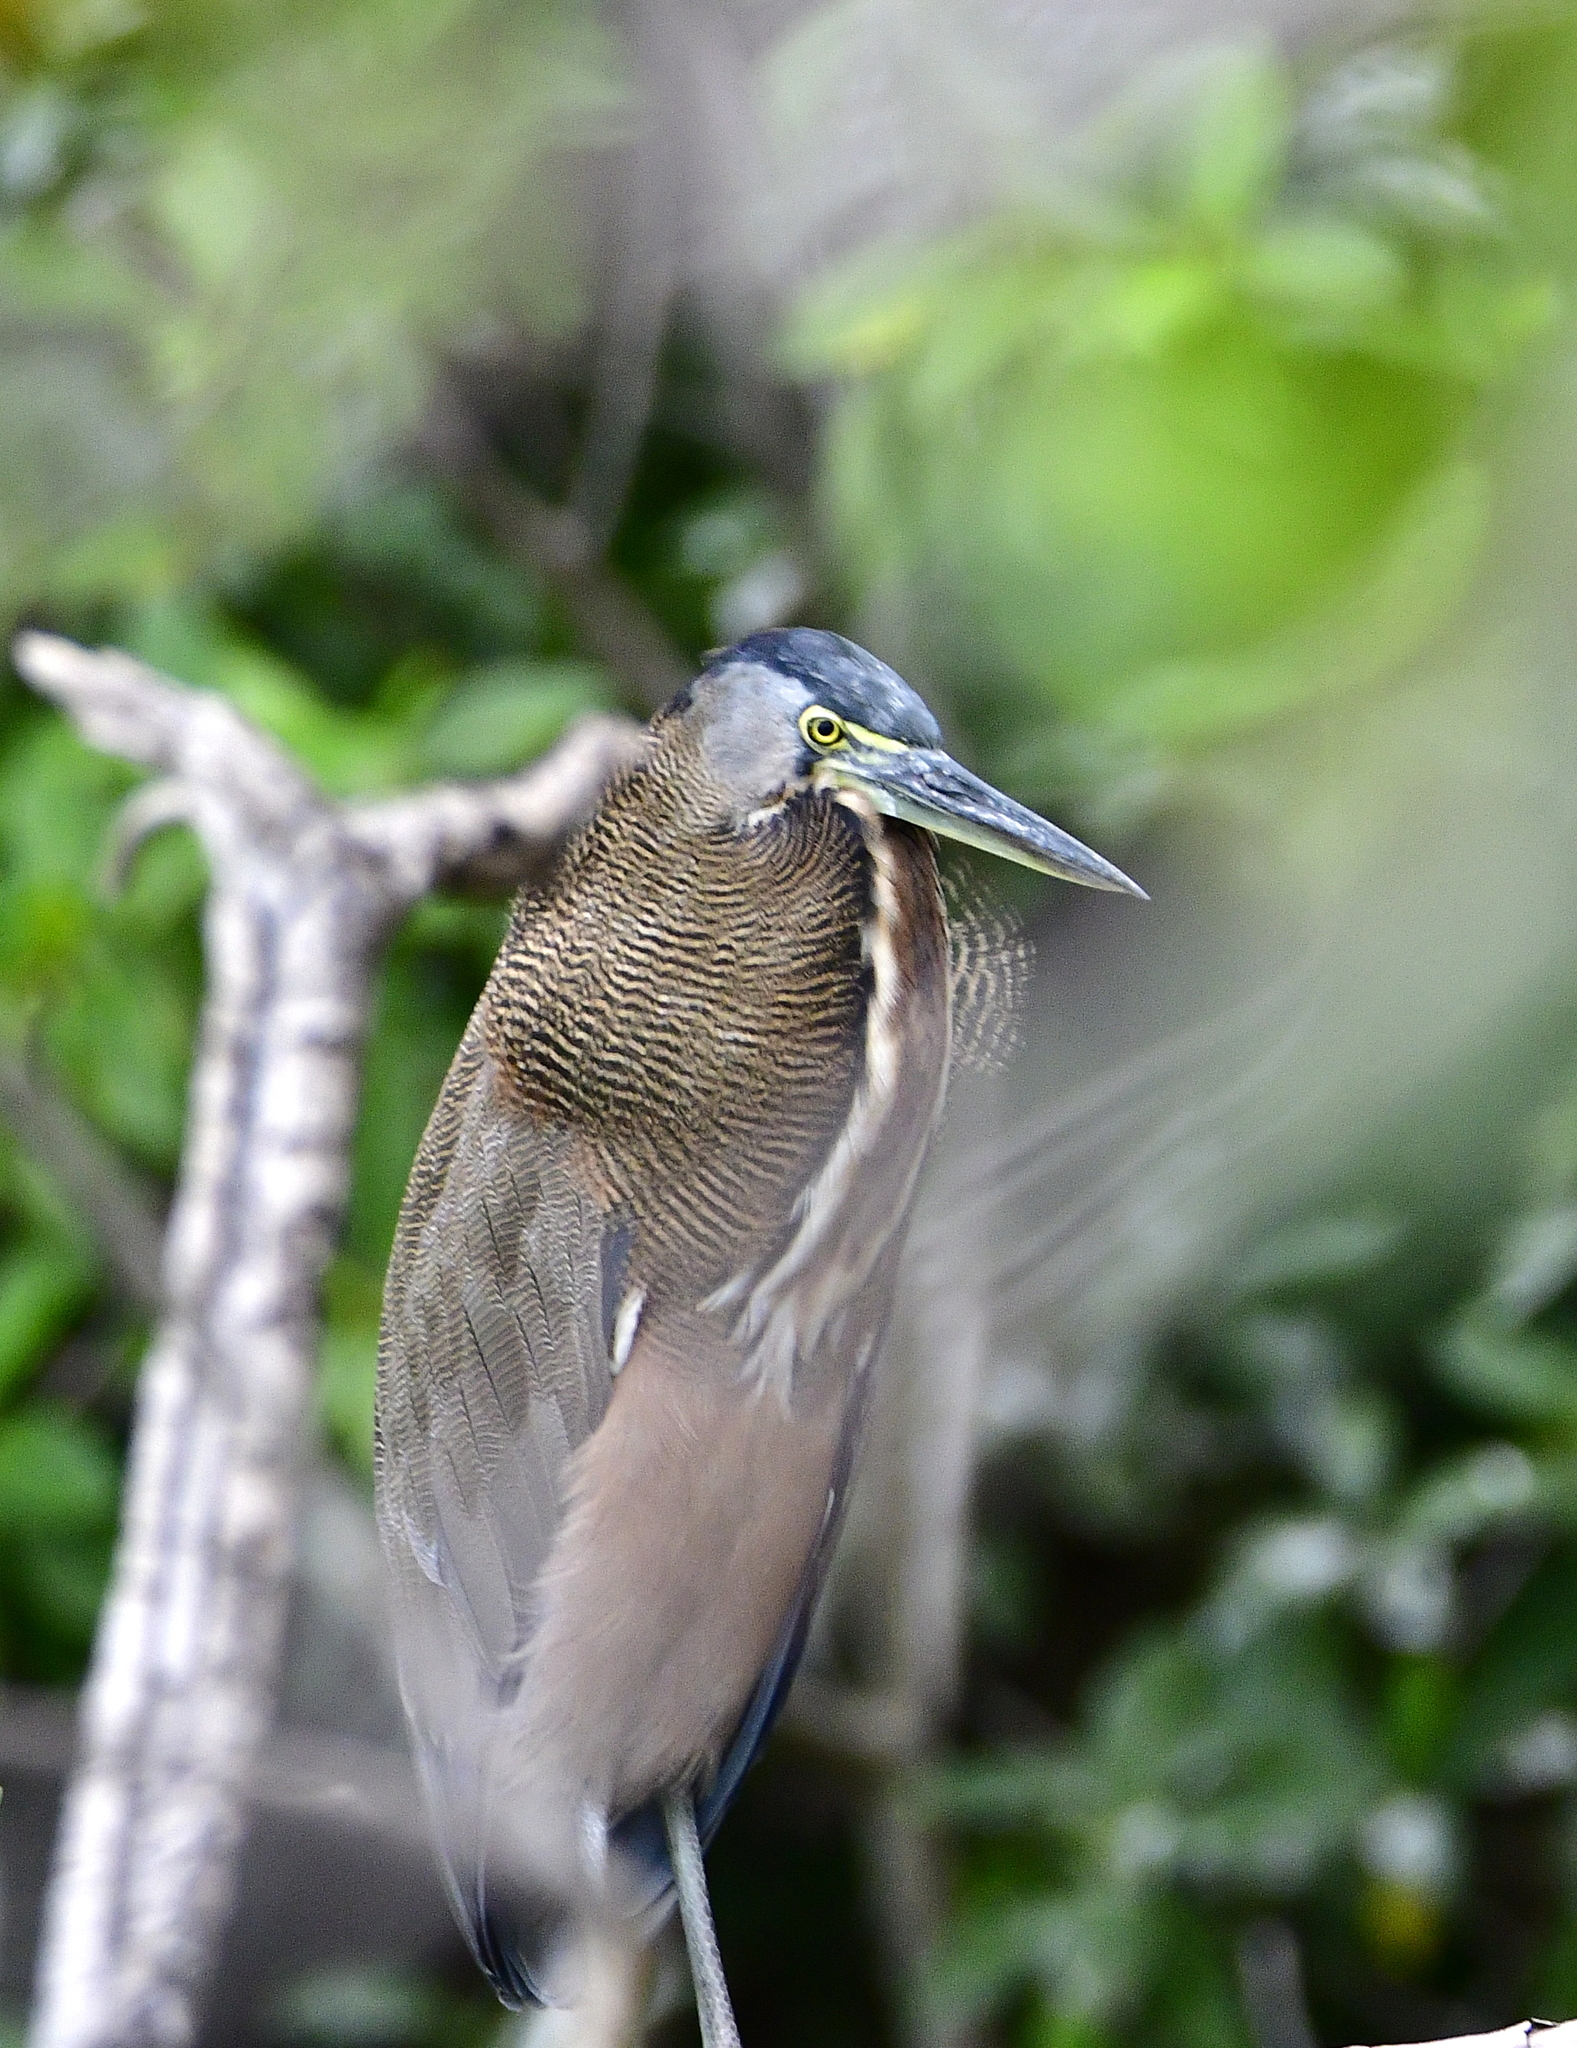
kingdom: Animalia
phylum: Chordata
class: Aves
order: Pelecaniformes
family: Ardeidae
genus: Tigrisoma
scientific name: Tigrisoma mexicanum
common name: Bare-throated tiger-heron
